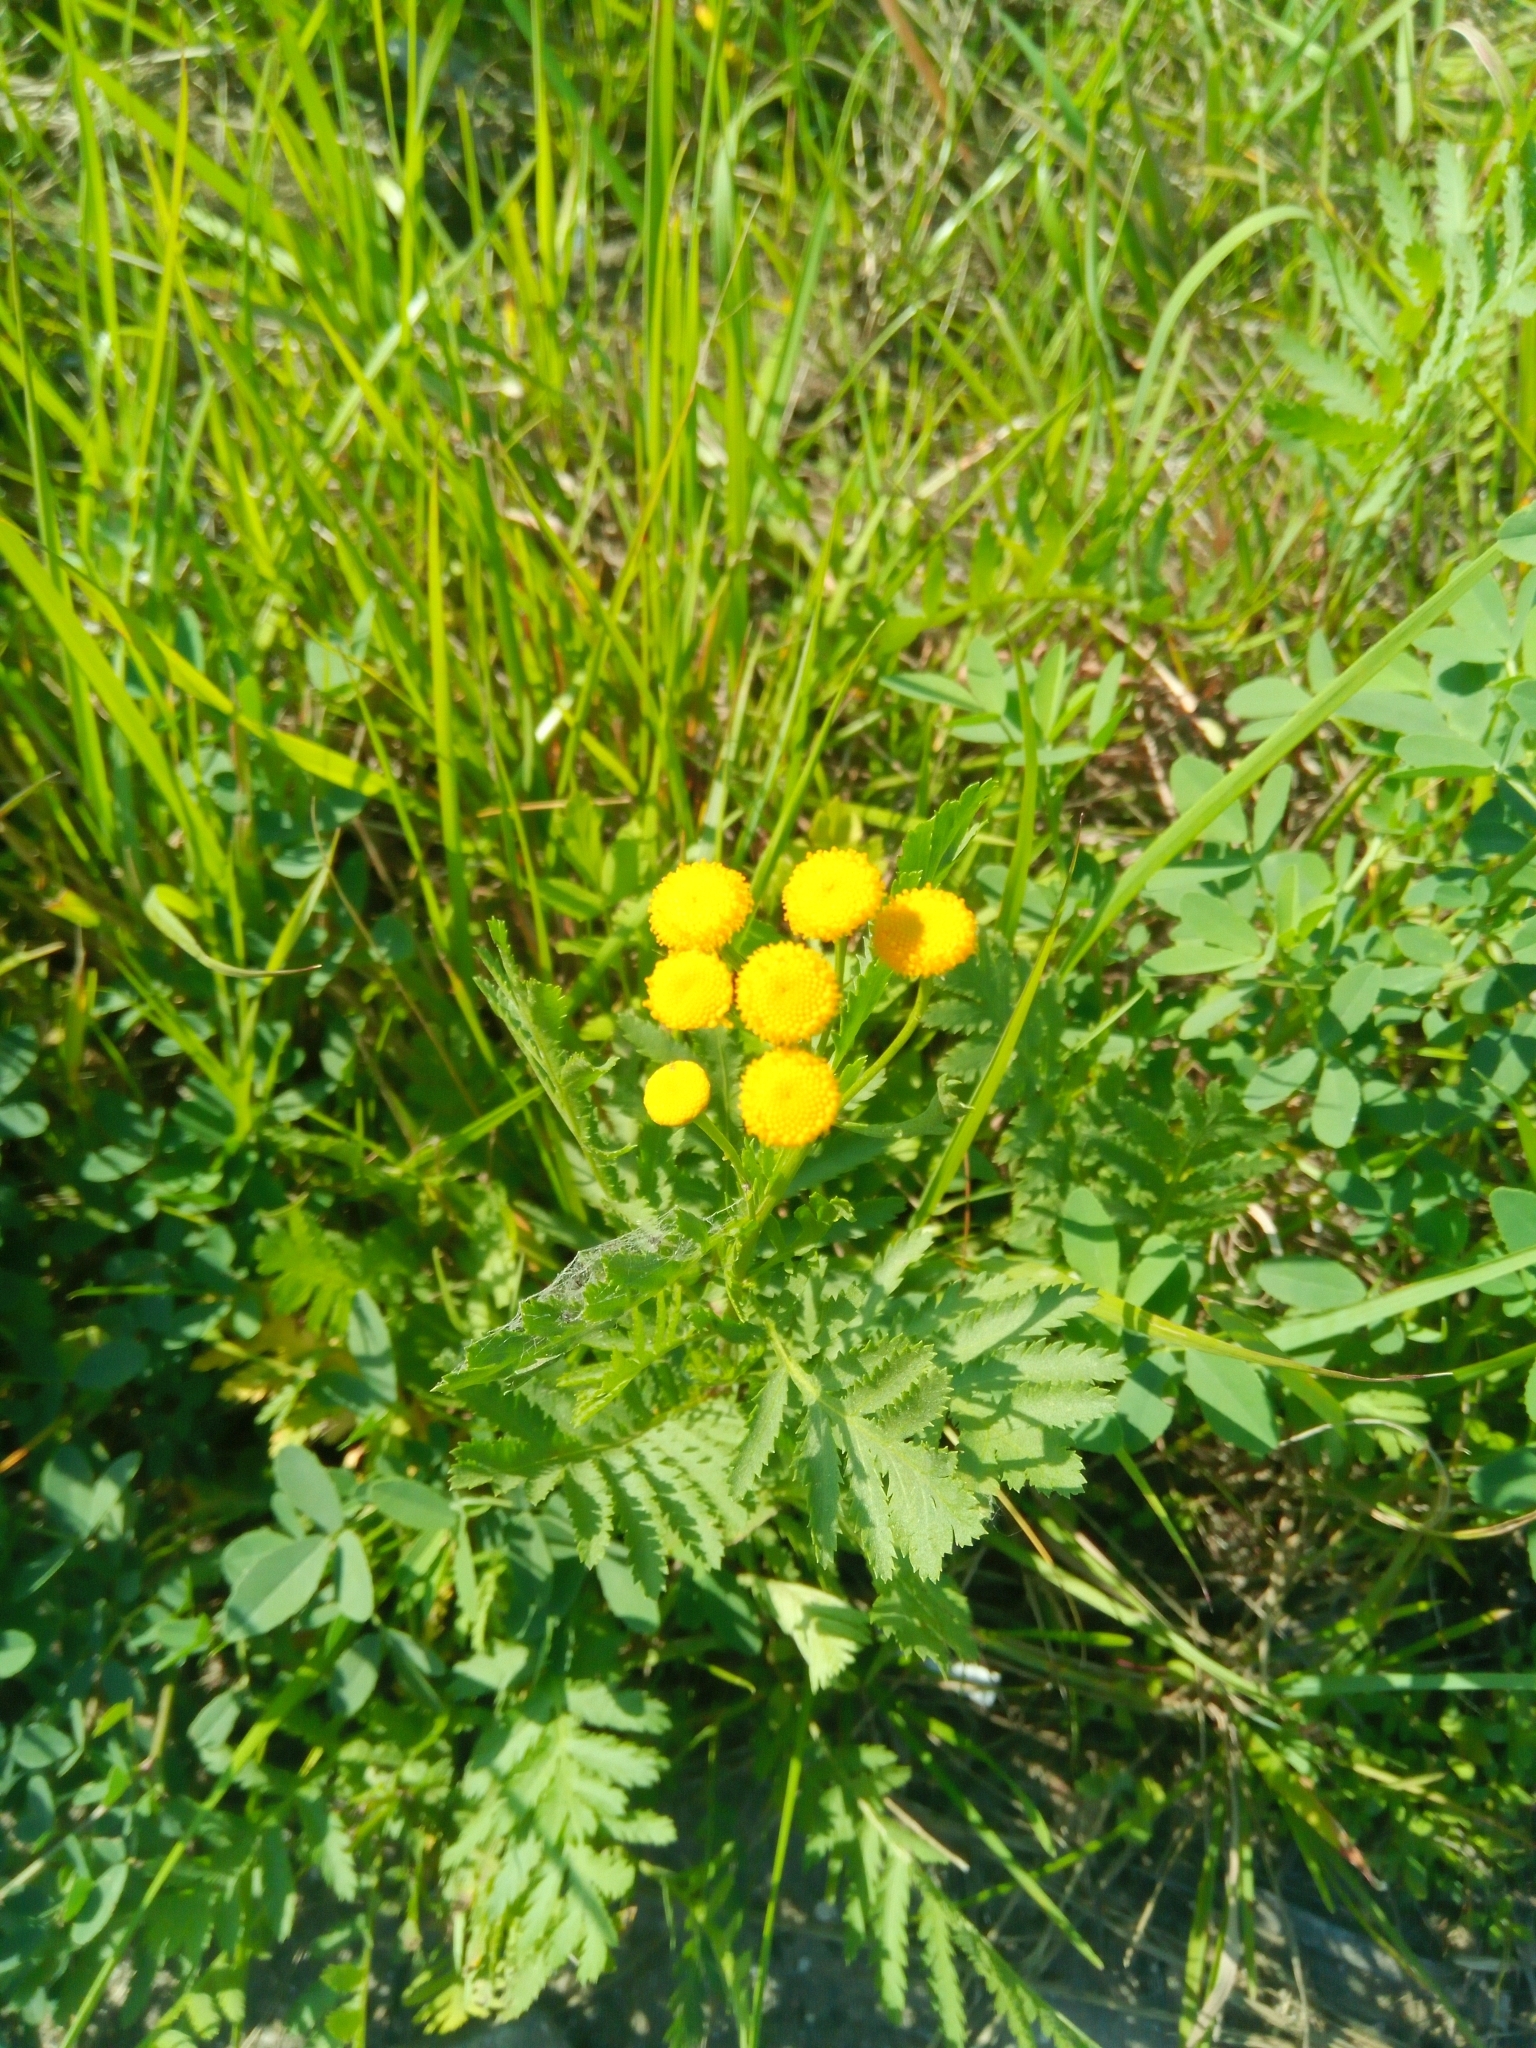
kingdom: Plantae
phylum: Tracheophyta
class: Magnoliopsida
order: Asterales
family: Asteraceae
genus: Tanacetum
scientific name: Tanacetum vulgare
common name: Common tansy
